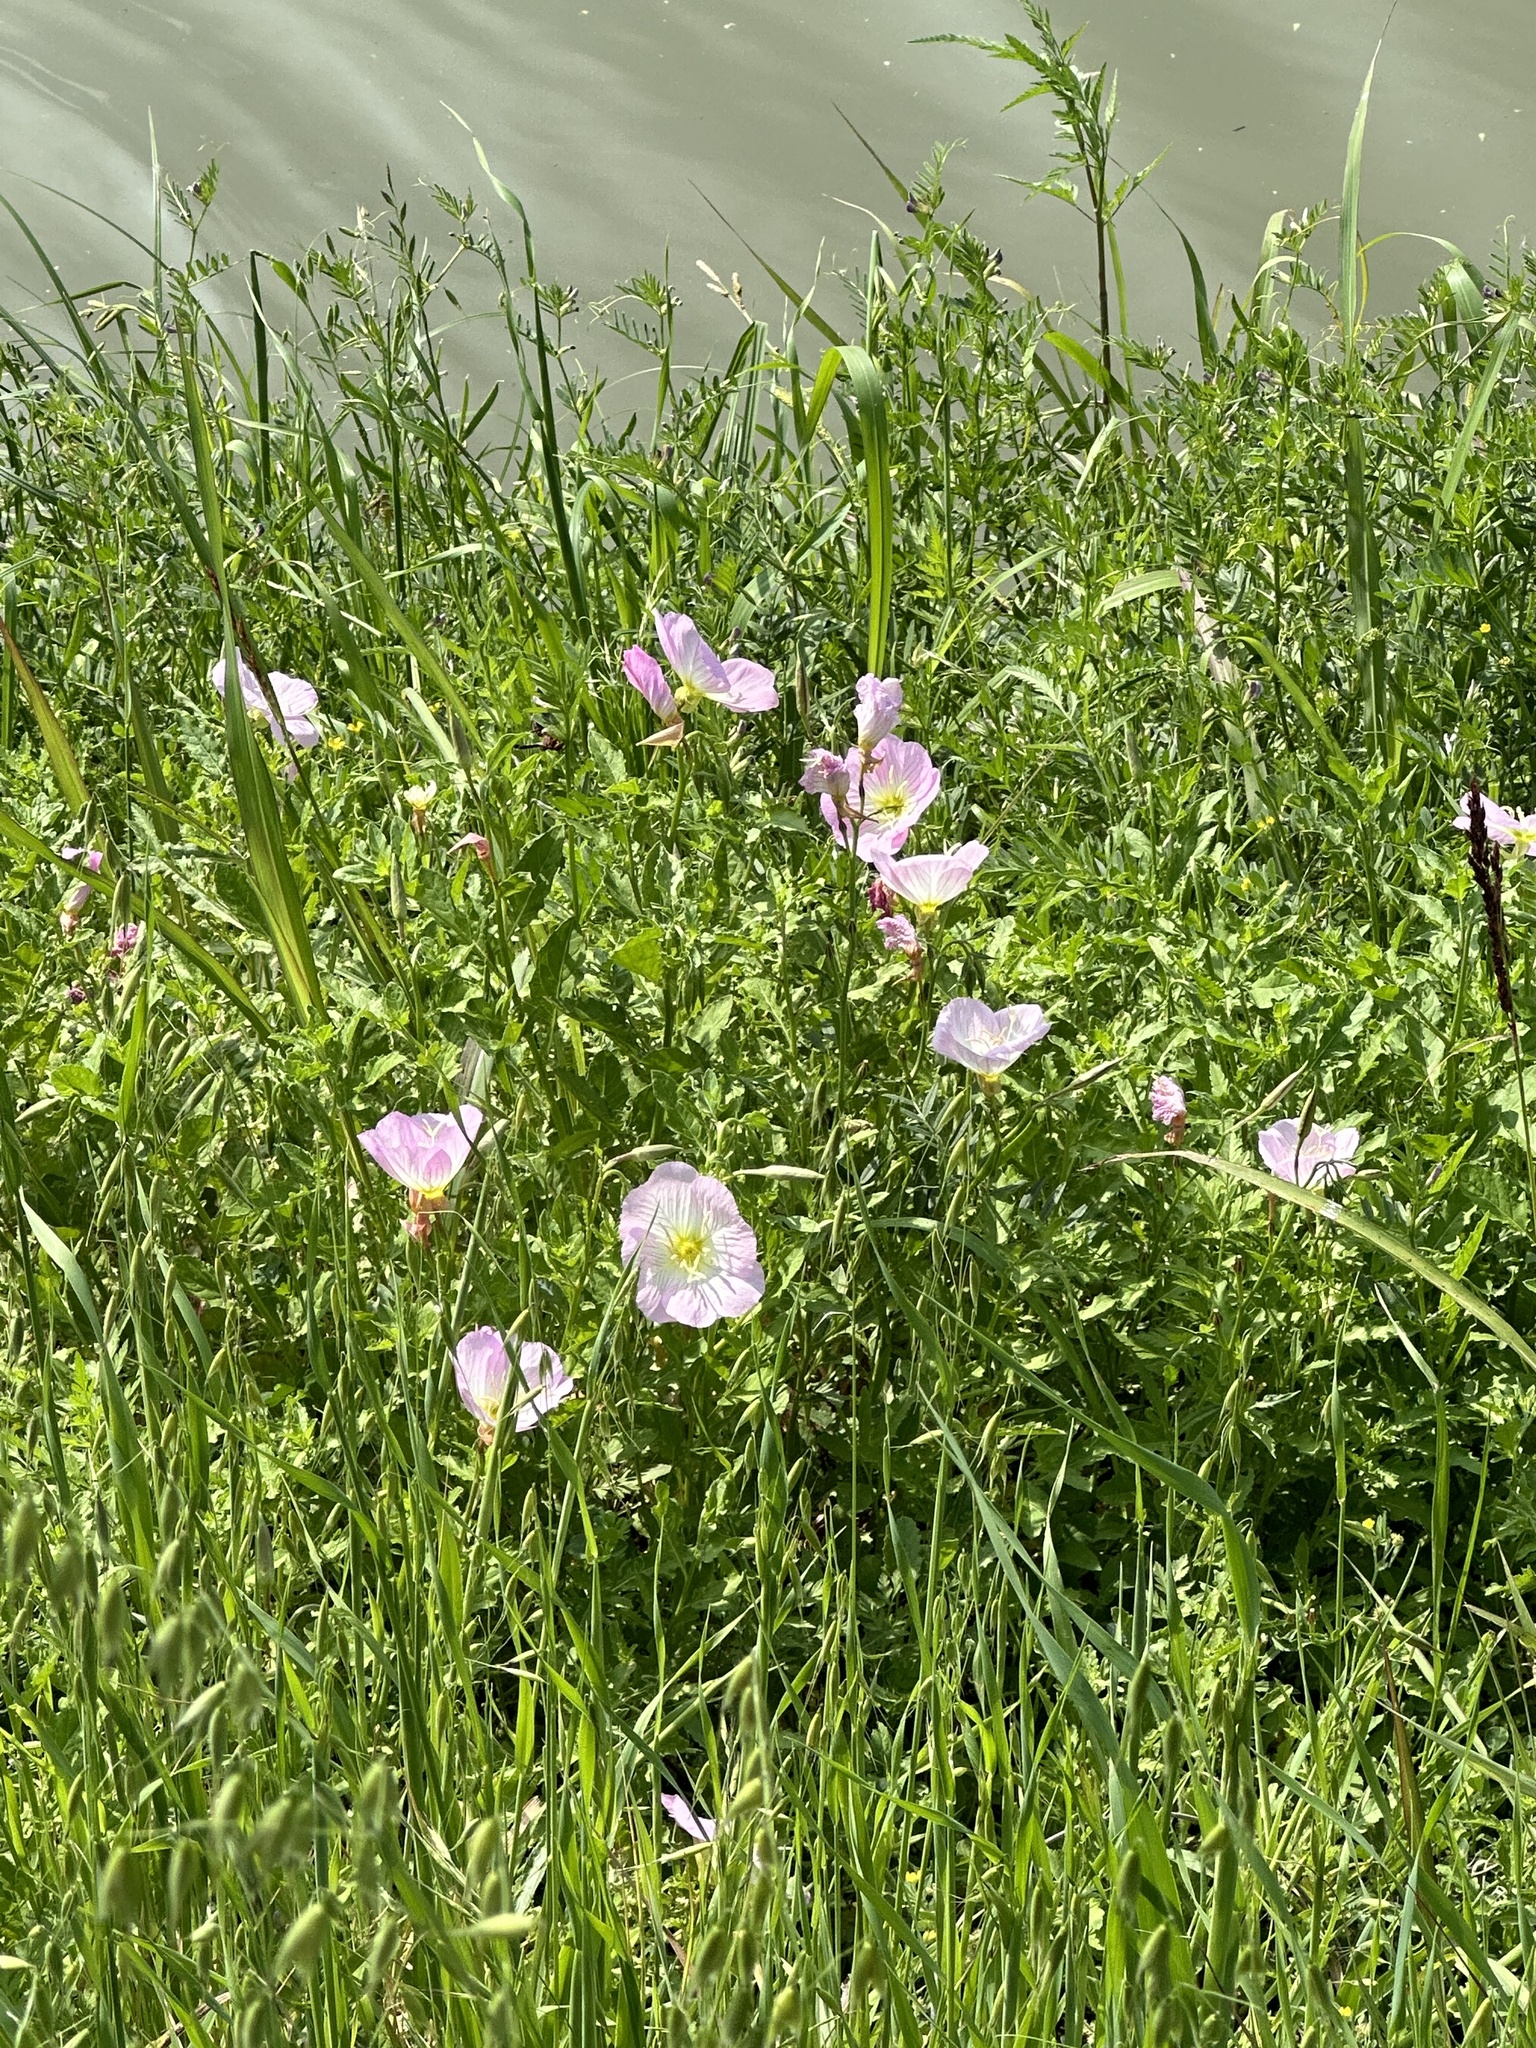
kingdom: Plantae
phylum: Tracheophyta
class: Magnoliopsida
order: Myrtales
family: Onagraceae
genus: Oenothera
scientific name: Oenothera speciosa
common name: White evening-primrose
